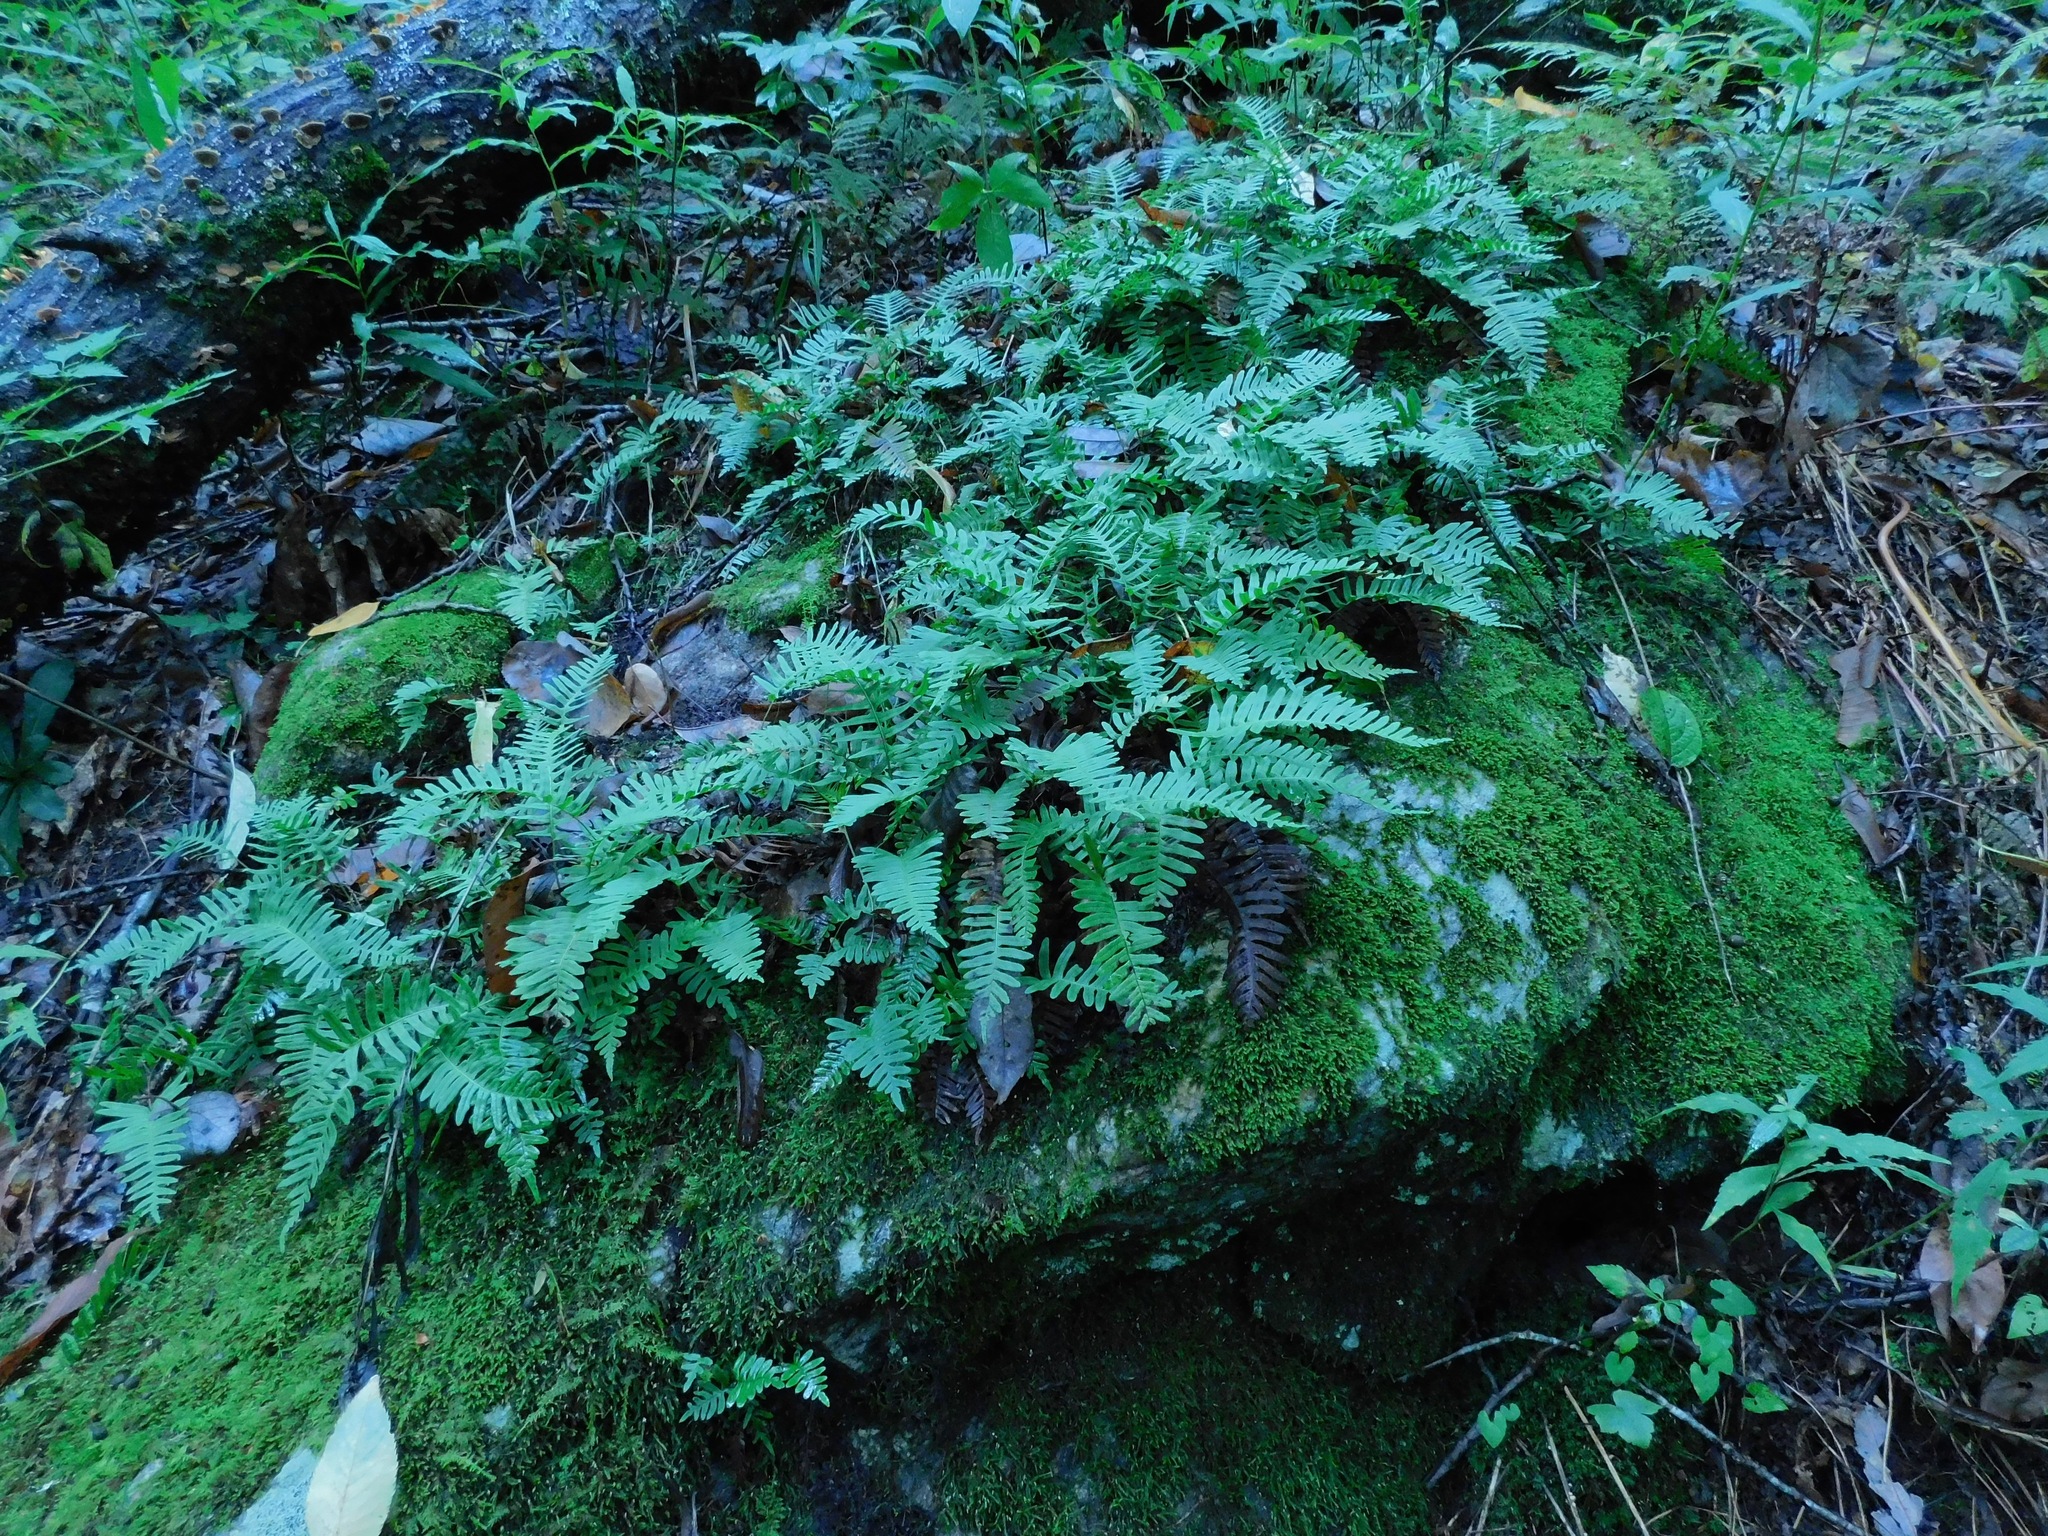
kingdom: Plantae
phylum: Tracheophyta
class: Polypodiopsida
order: Polypodiales
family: Polypodiaceae
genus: Polypodium
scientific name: Polypodium virginianum
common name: American wall fern
